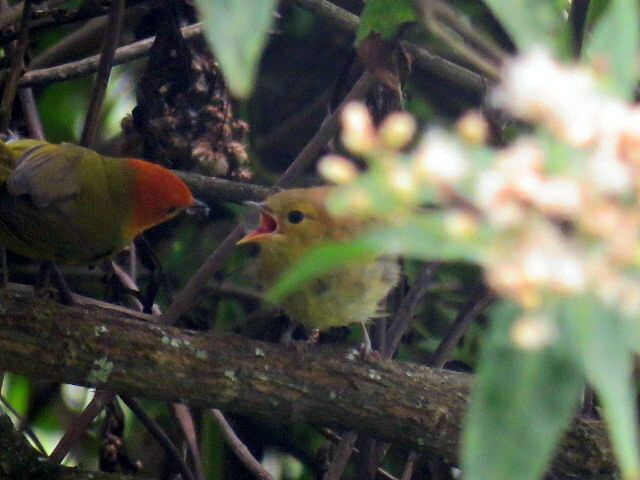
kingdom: Animalia
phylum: Chordata
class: Aves
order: Passeriformes
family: Thraupidae
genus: Thlypopsis
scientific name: Thlypopsis ruficeps
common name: Rust-and-yellow tanager
